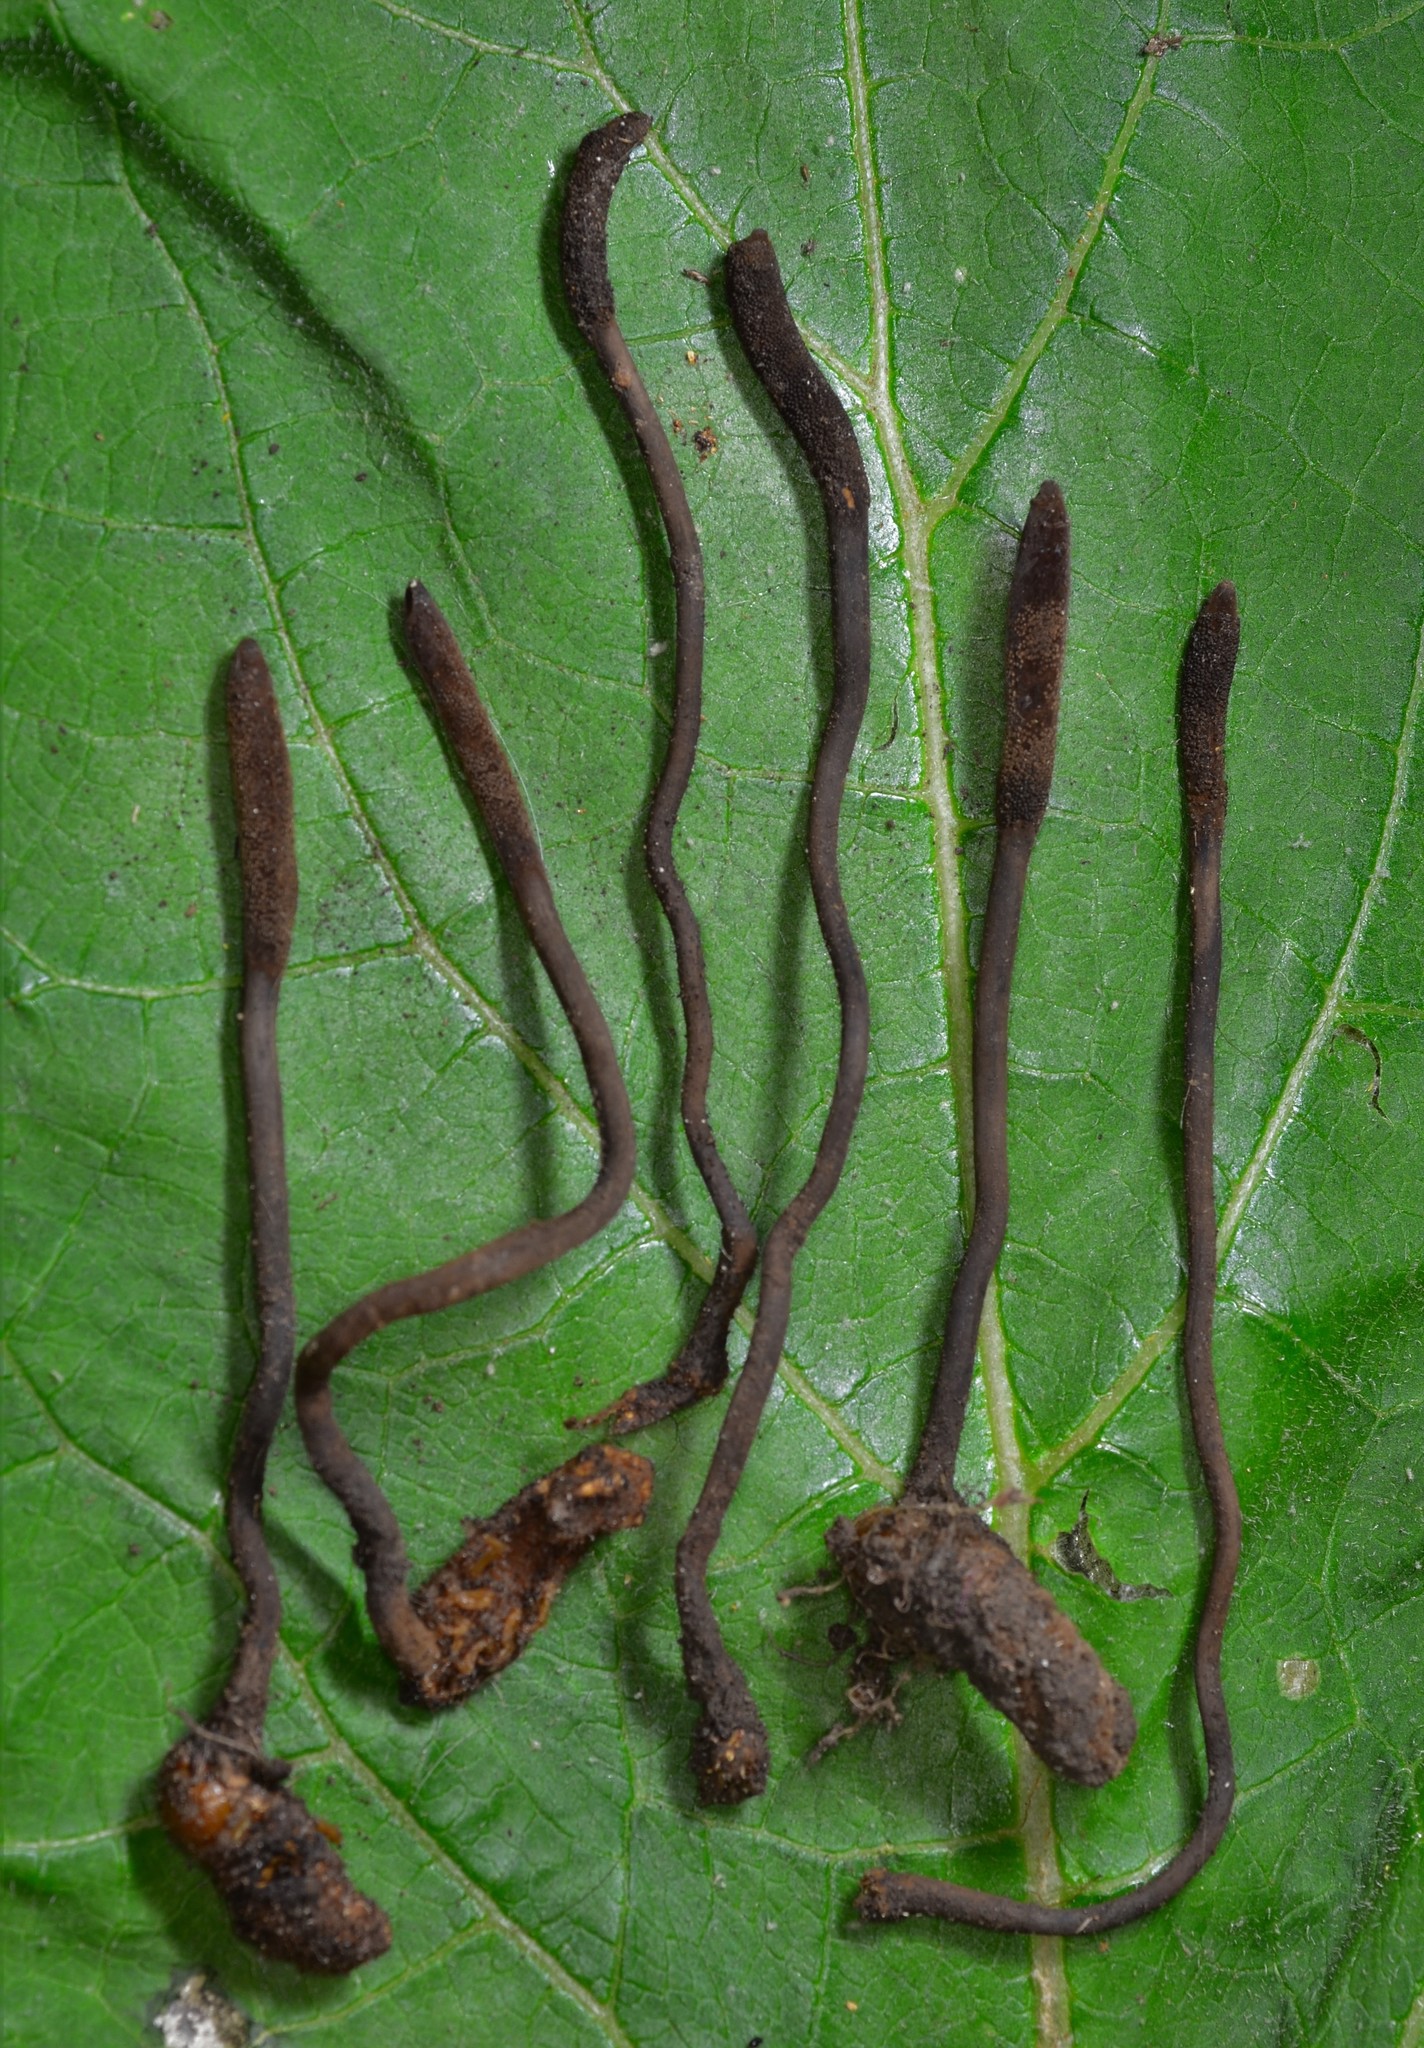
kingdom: Fungi
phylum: Ascomycota
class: Sordariomycetes
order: Hypocreales
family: Ophiocordycipitaceae
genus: Ophiocordyceps
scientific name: Ophiocordyceps ravenelii
